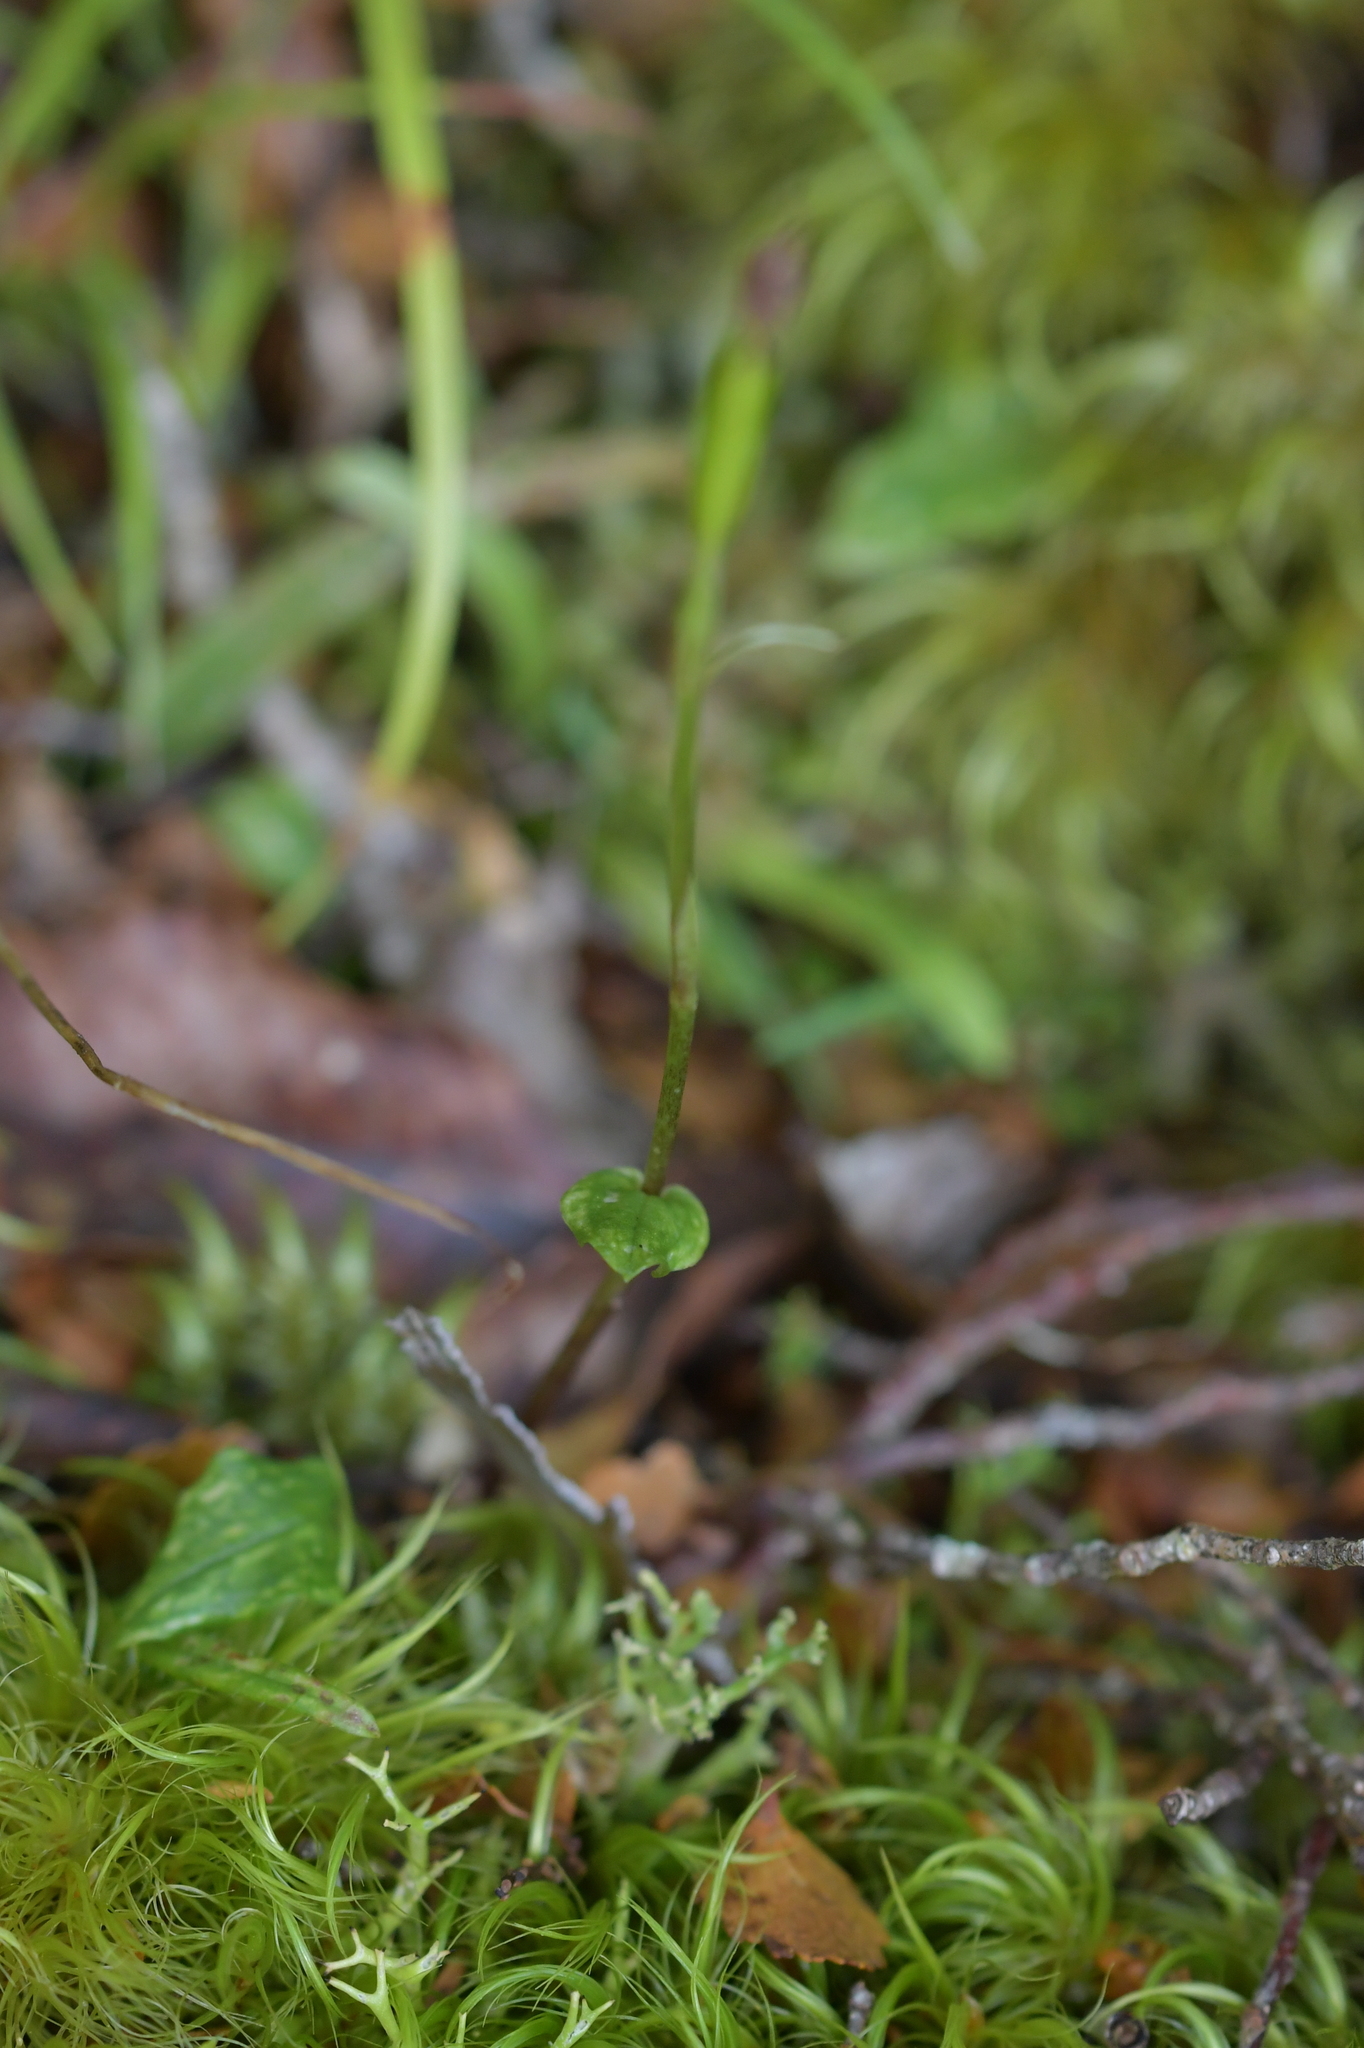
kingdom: Plantae
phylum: Tracheophyta
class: Liliopsida
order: Asparagales
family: Orchidaceae
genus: Adenochilus
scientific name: Adenochilus gracilis
